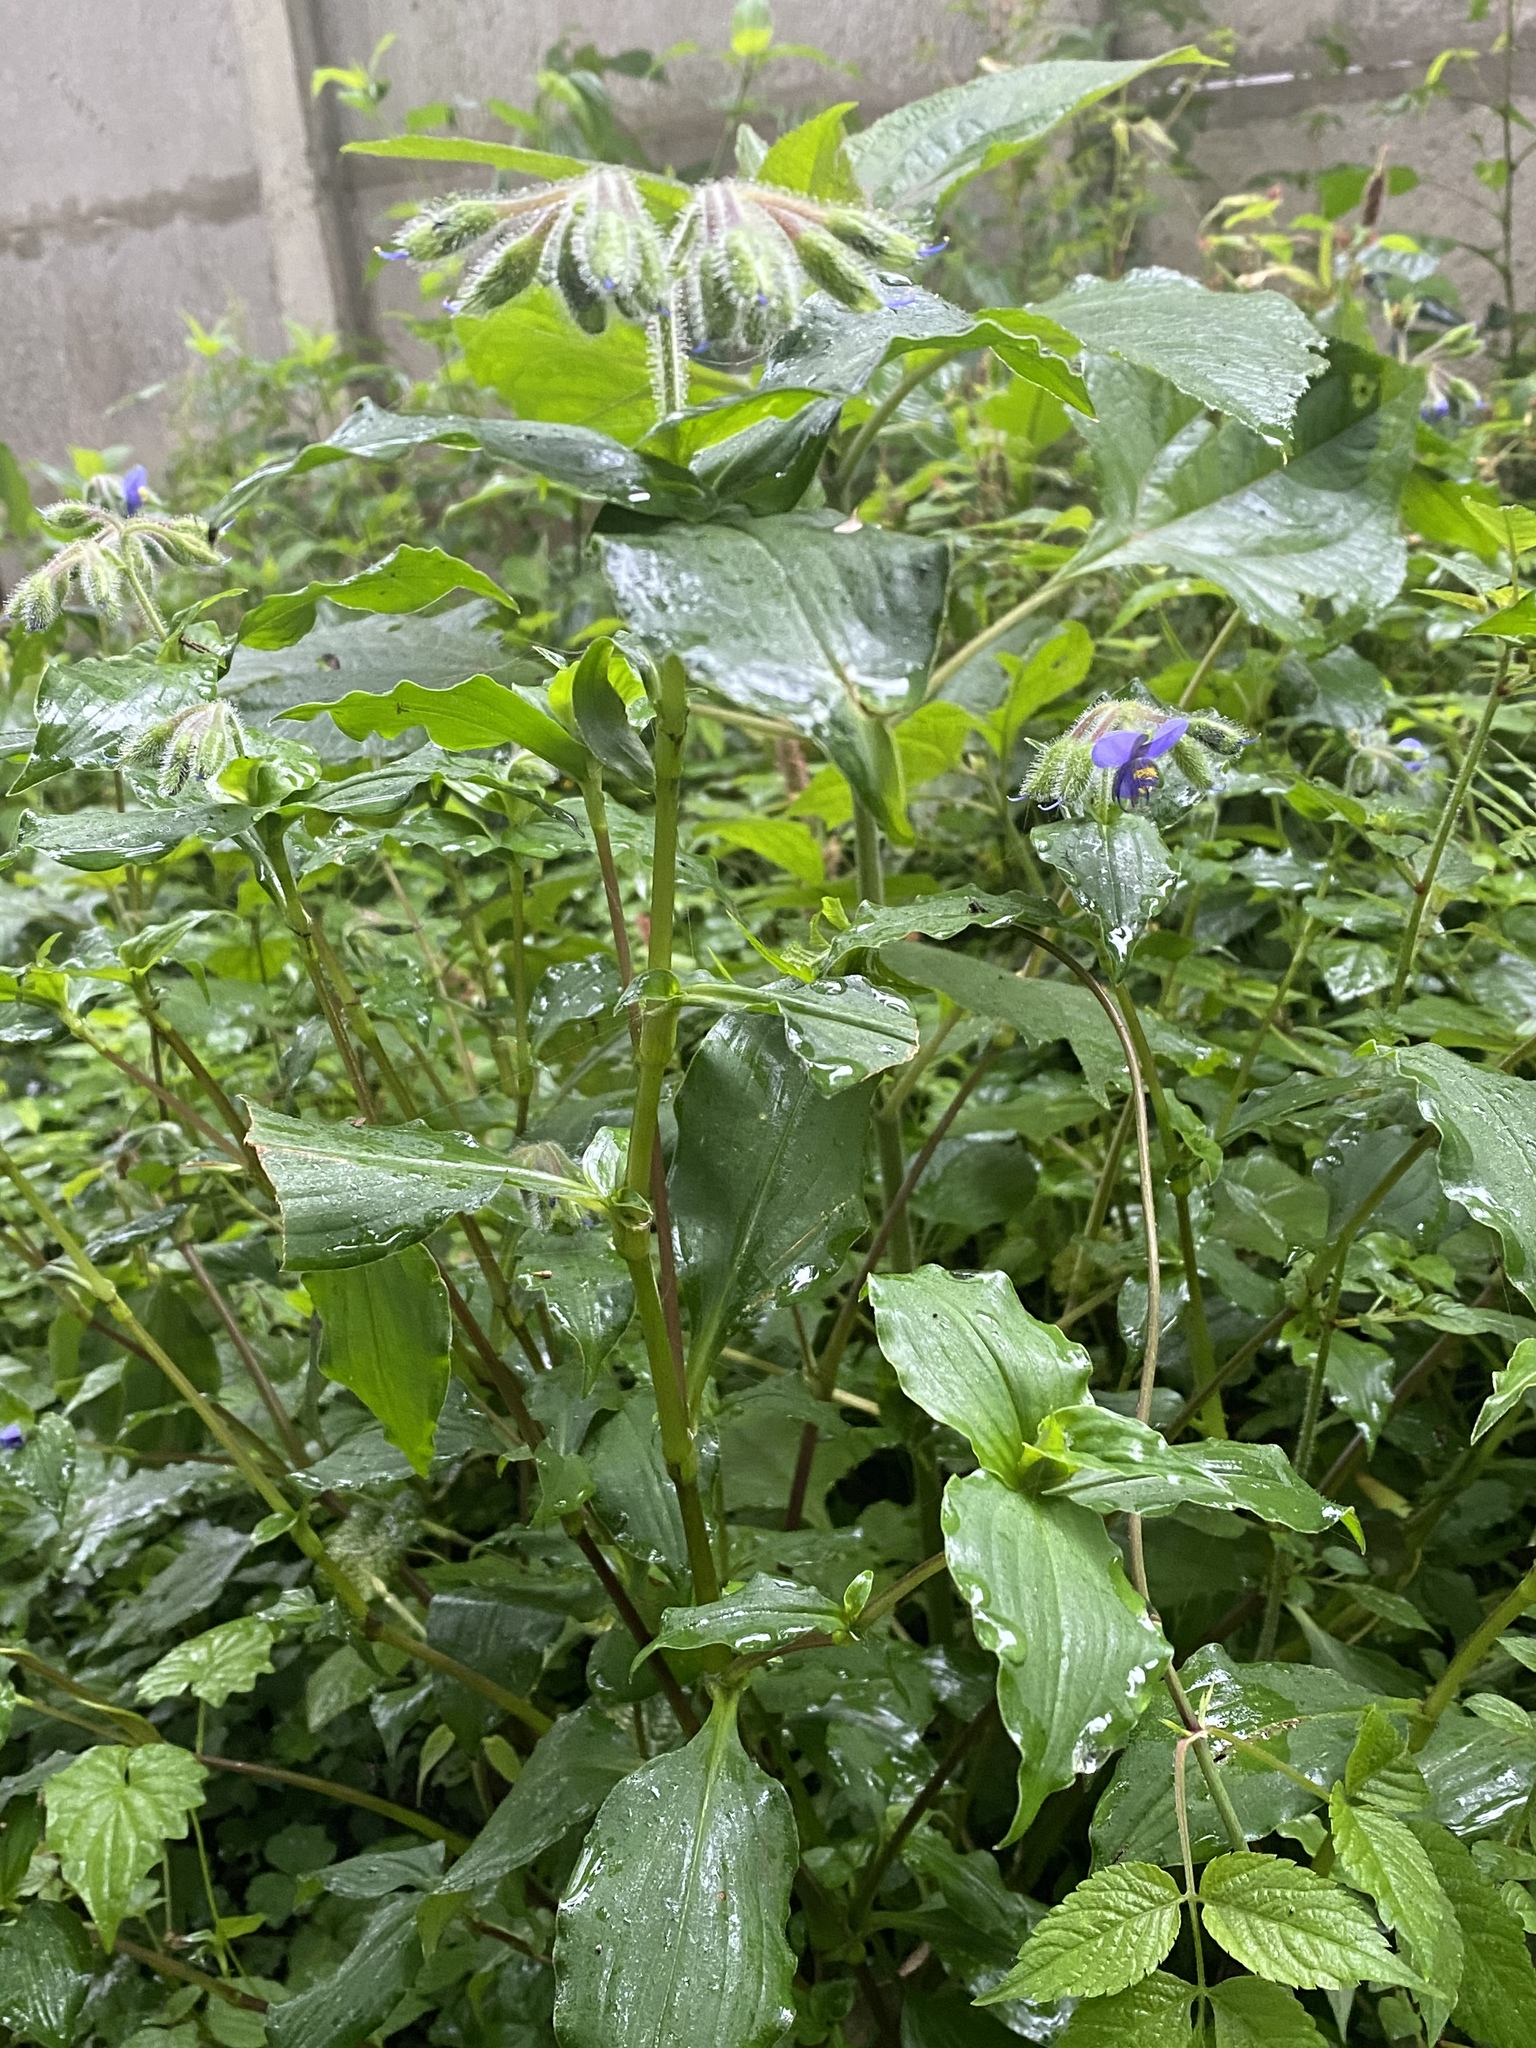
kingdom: Plantae
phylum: Tracheophyta
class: Liliopsida
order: Commelinales
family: Commelinaceae
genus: Tinantia
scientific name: Tinantia erecta
